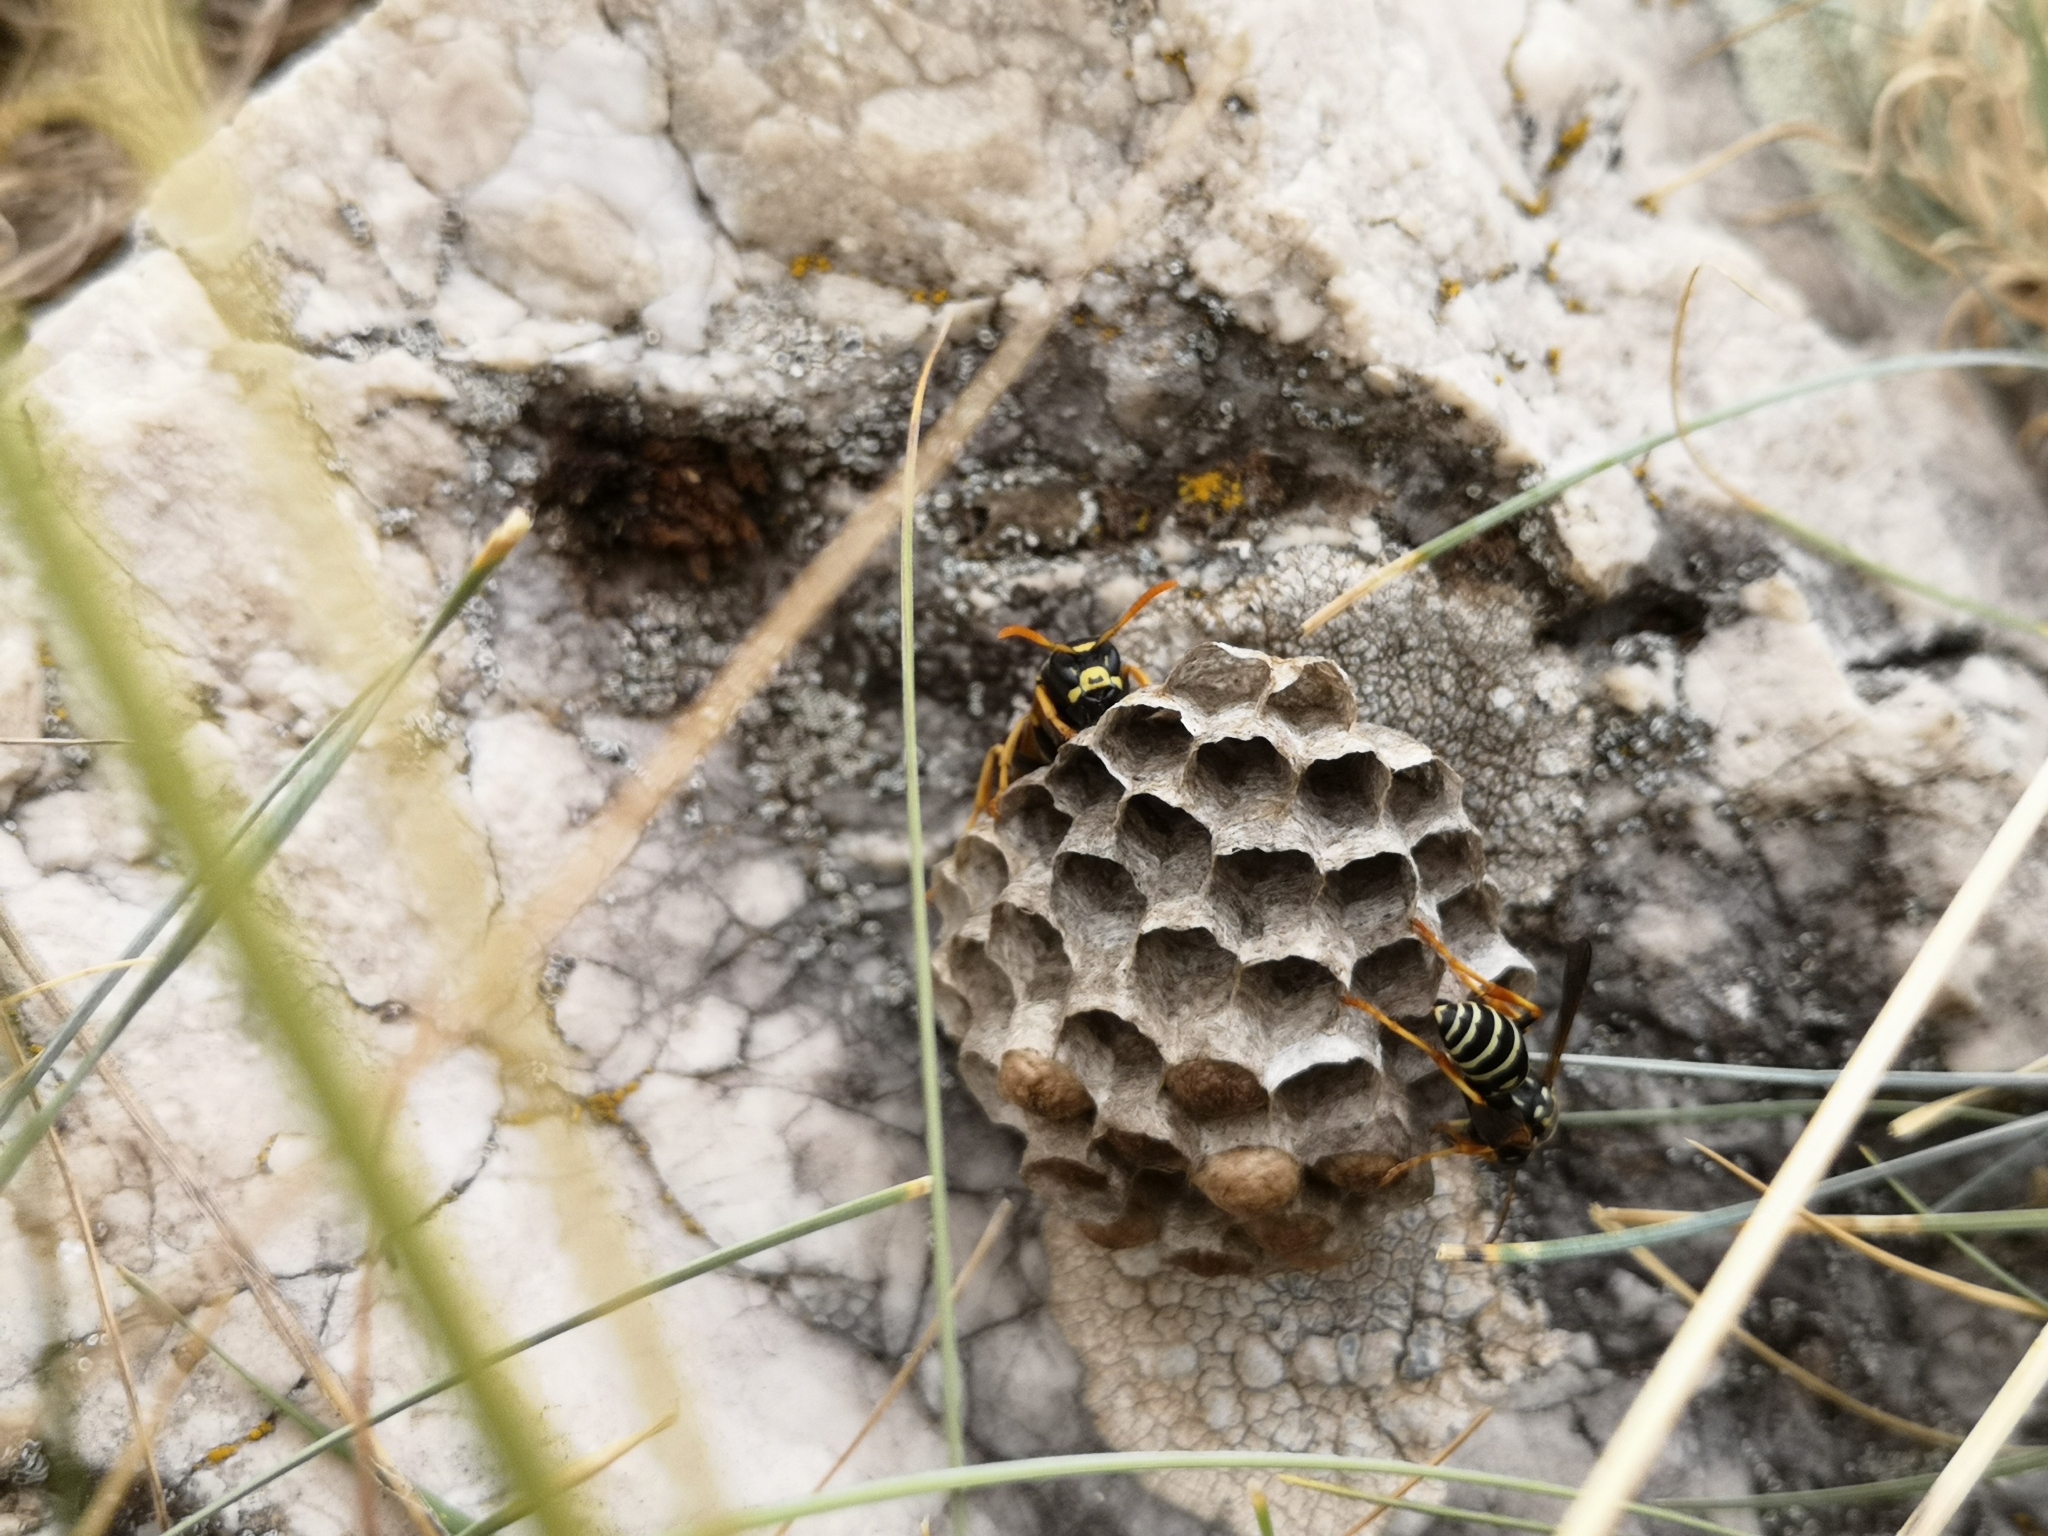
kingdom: Animalia
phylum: Arthropoda
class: Insecta
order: Hymenoptera
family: Eumenidae
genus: Polistes
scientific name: Polistes atrimandibularis
